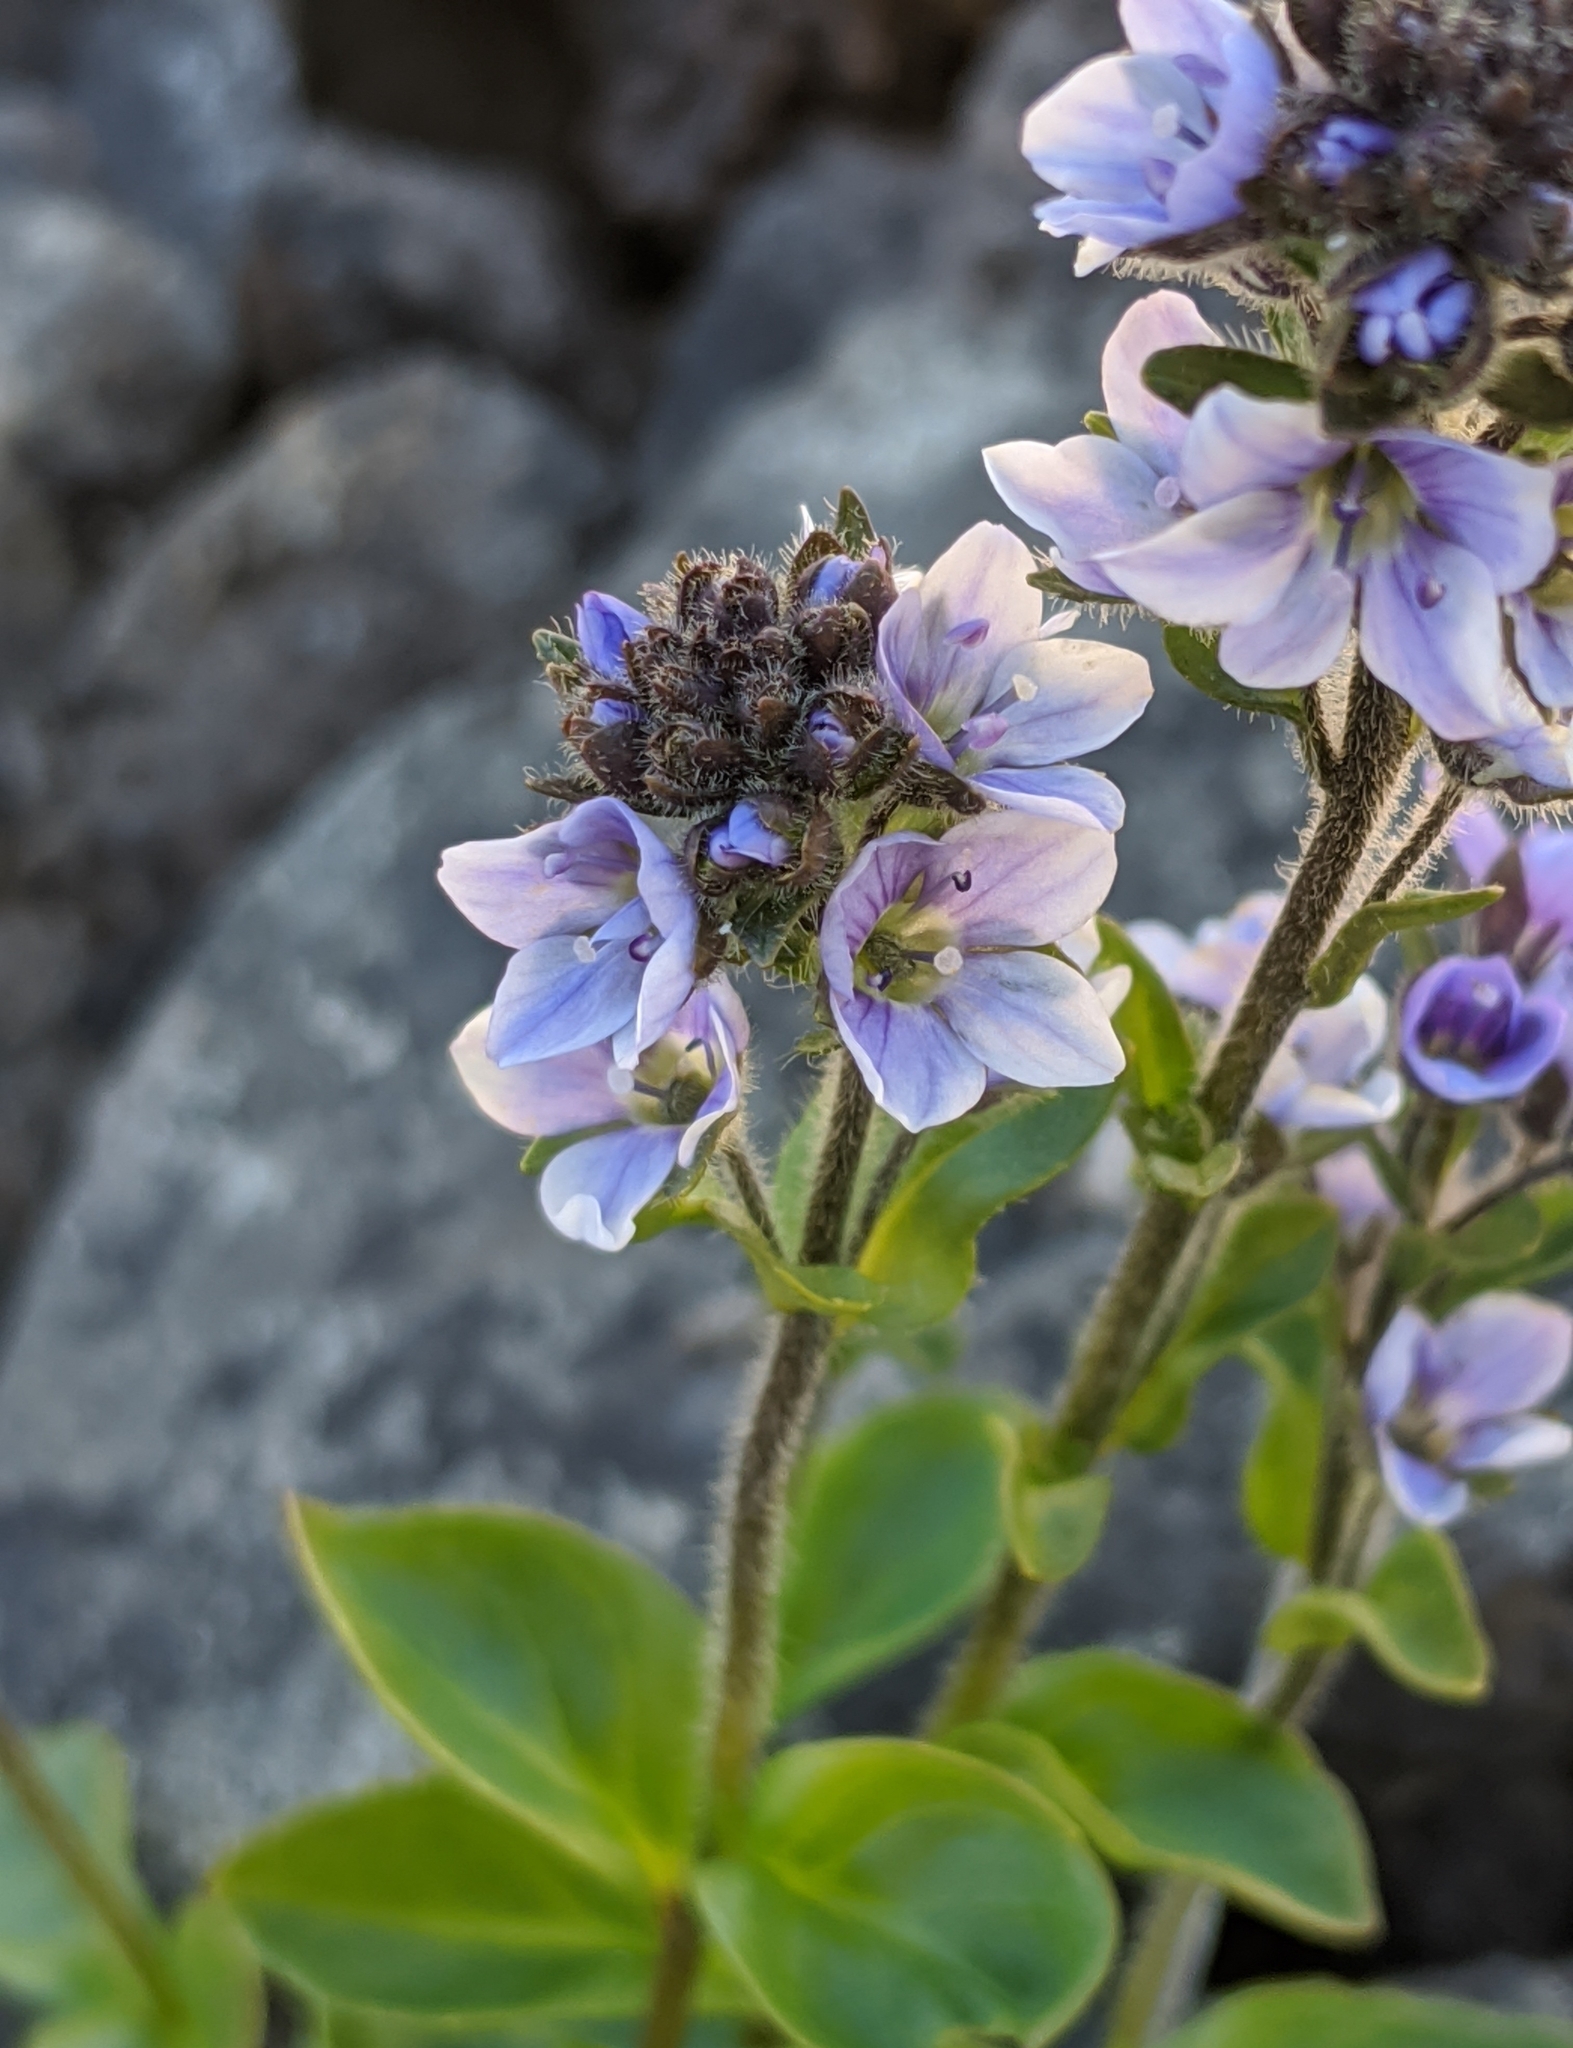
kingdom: Plantae
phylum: Tracheophyta
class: Magnoliopsida
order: Lamiales
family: Plantaginaceae
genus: Veronica
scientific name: Veronica wormskjoldii
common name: American alpine speedwell
